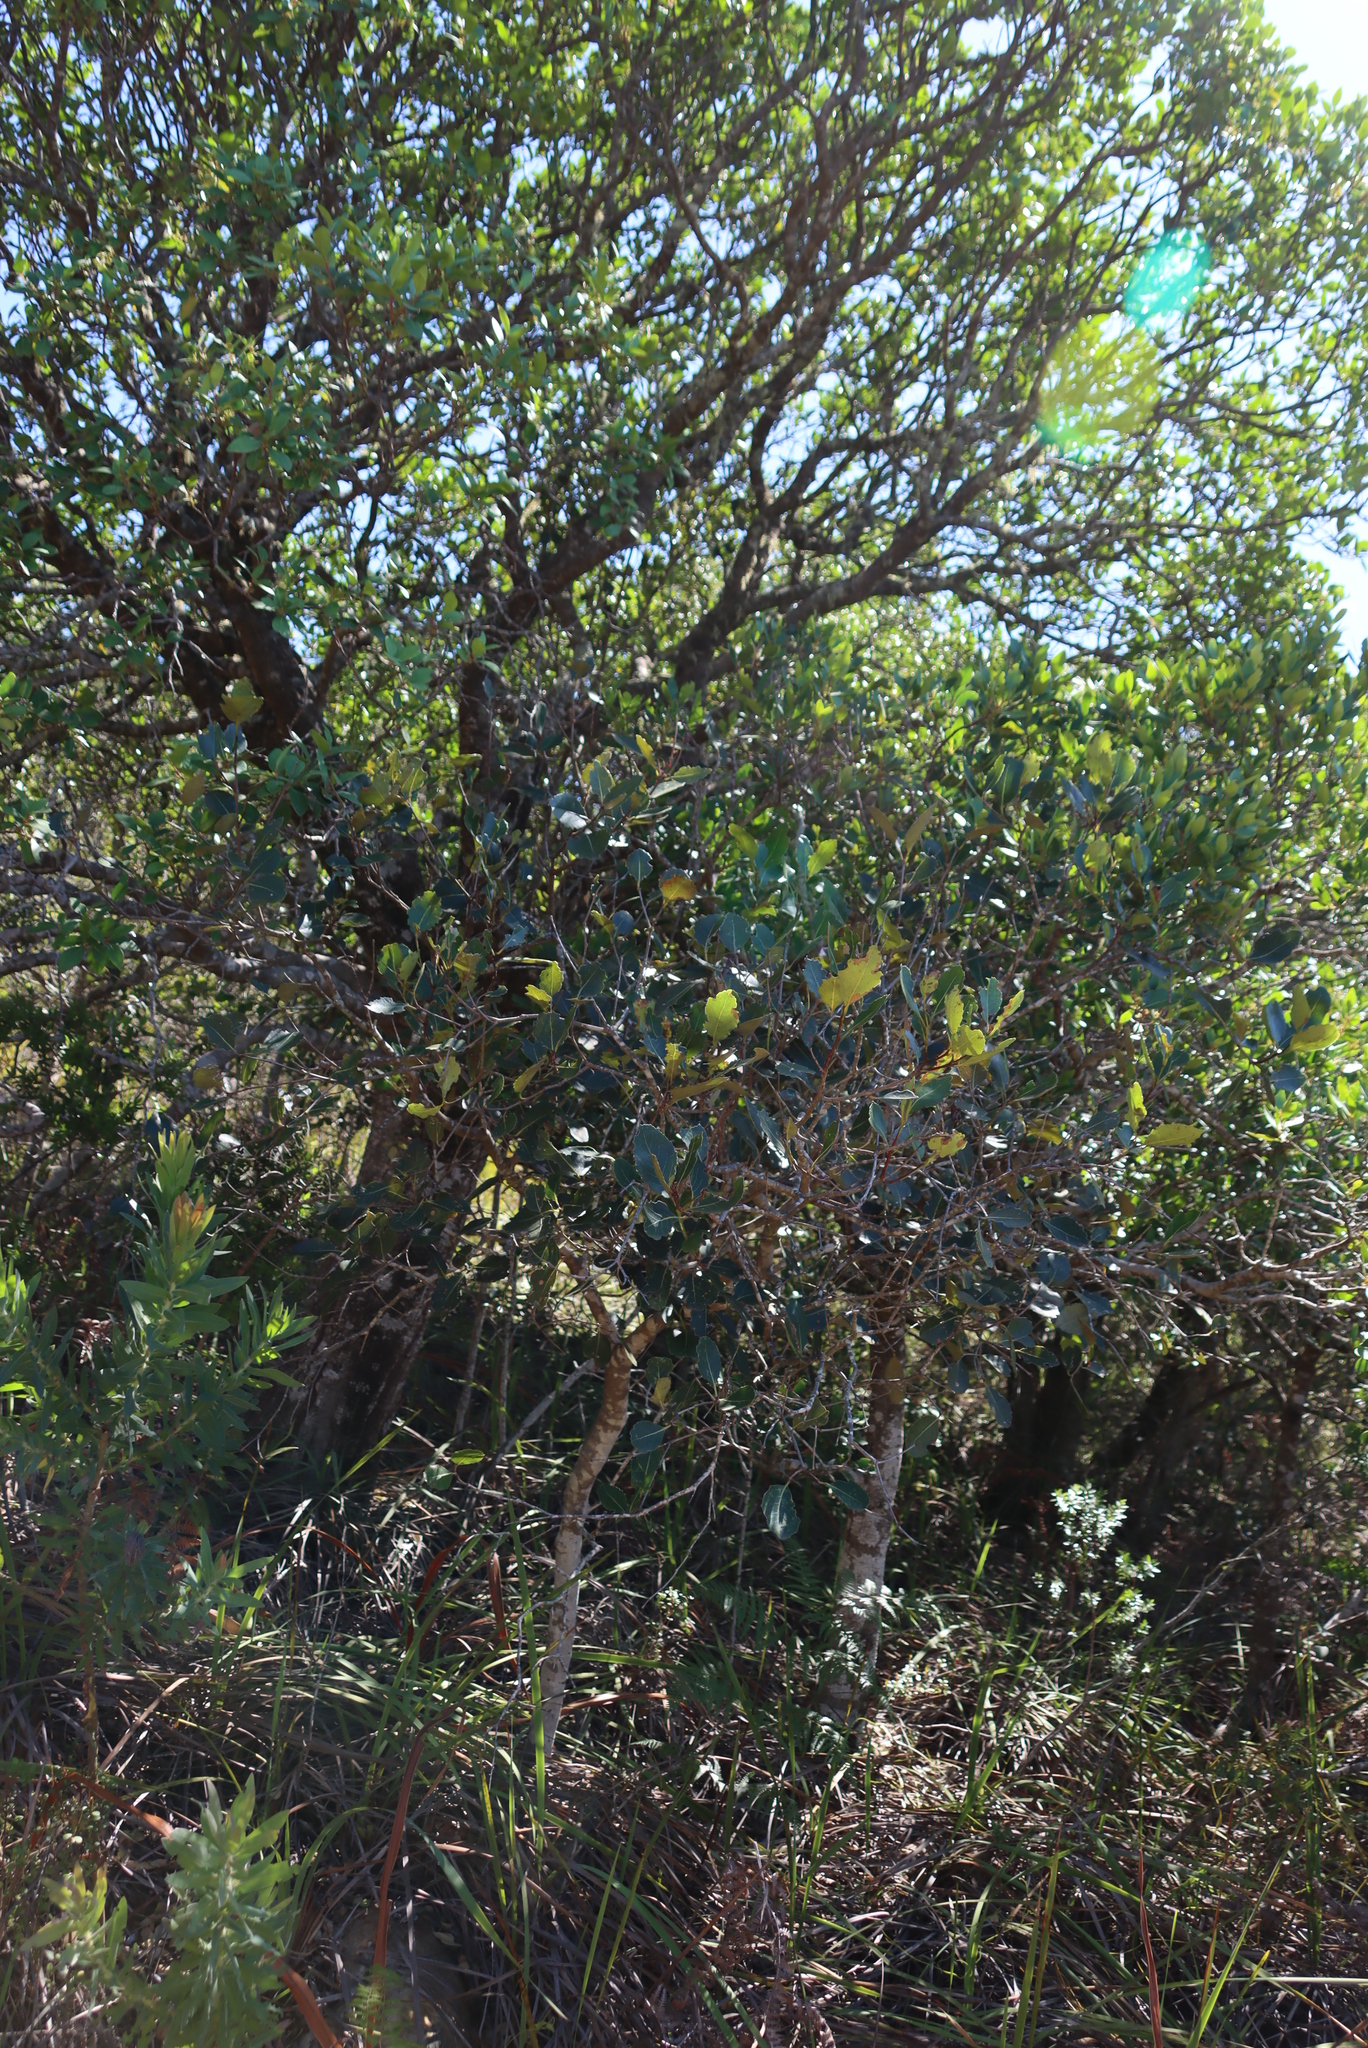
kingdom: Plantae
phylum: Tracheophyta
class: Magnoliopsida
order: Celastrales
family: Celastraceae
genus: Cassine
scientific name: Cassine peragua
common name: Cape saffron
